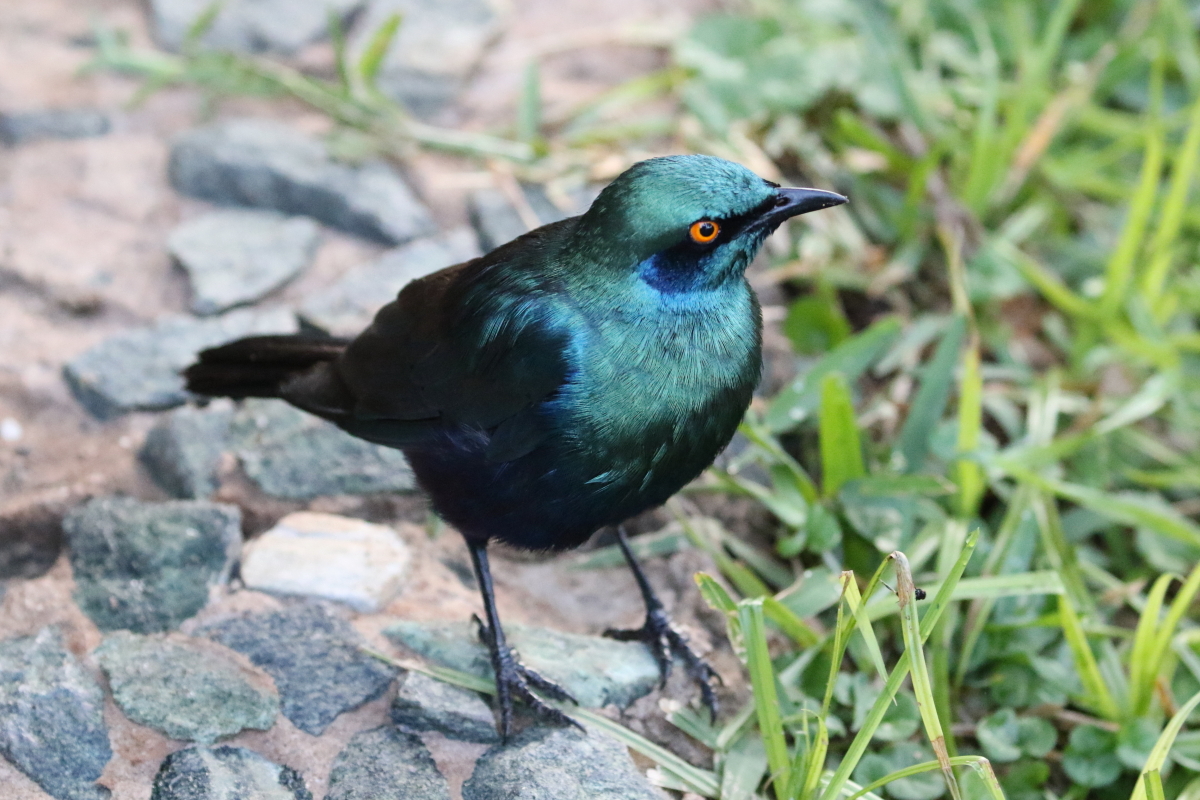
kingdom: Animalia
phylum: Chordata
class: Aves
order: Passeriformes
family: Sturnidae
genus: Lamprotornis
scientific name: Lamprotornis chalybaeus
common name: Greater blue-eared starling
